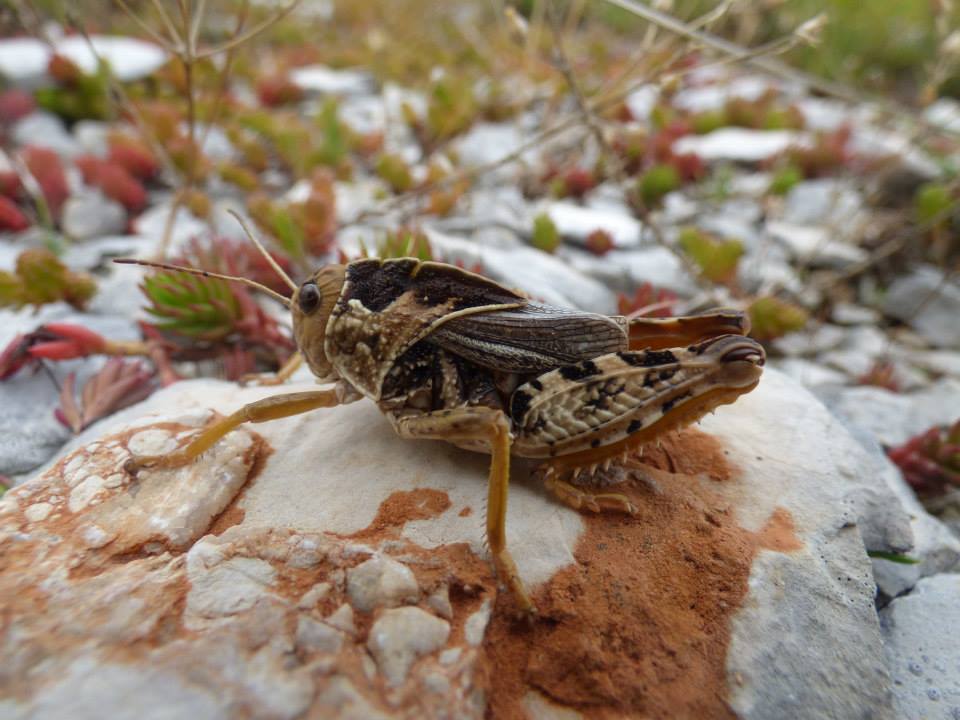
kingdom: Animalia
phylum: Arthropoda
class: Insecta
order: Orthoptera
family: Pamphagidae
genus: Prionotropis
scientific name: Prionotropis hystrix
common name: Eastern stone grasshopper
